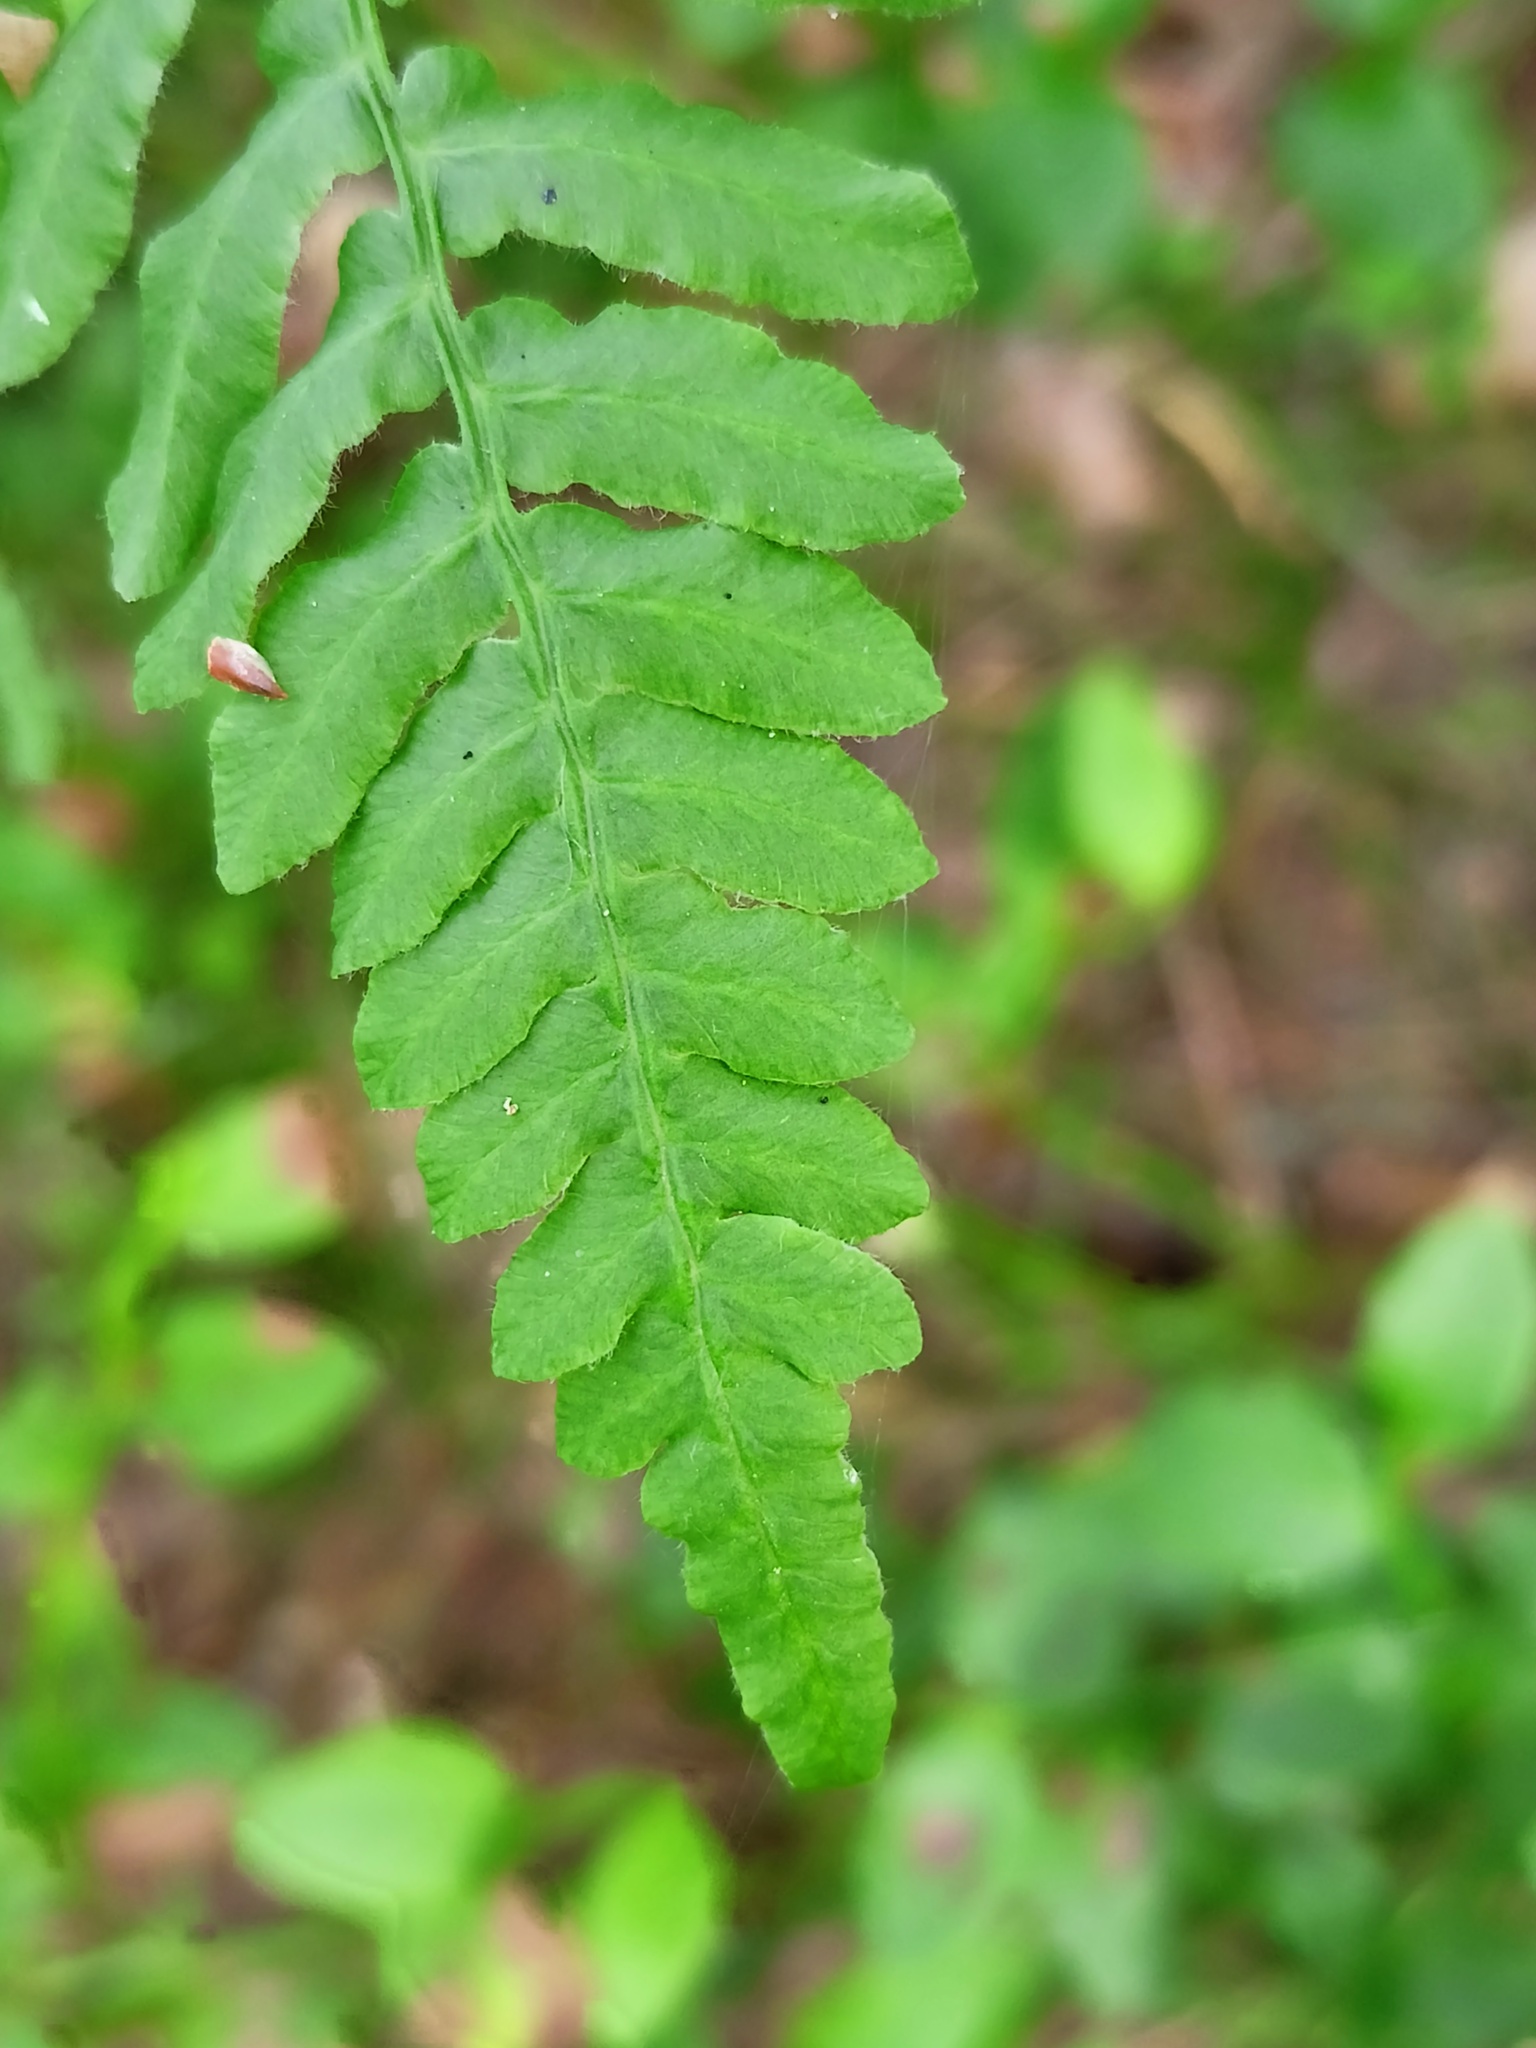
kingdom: Plantae
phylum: Tracheophyta
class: Polypodiopsida
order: Polypodiales
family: Dennstaedtiaceae
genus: Pteridium
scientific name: Pteridium aquilinum
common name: Bracken
